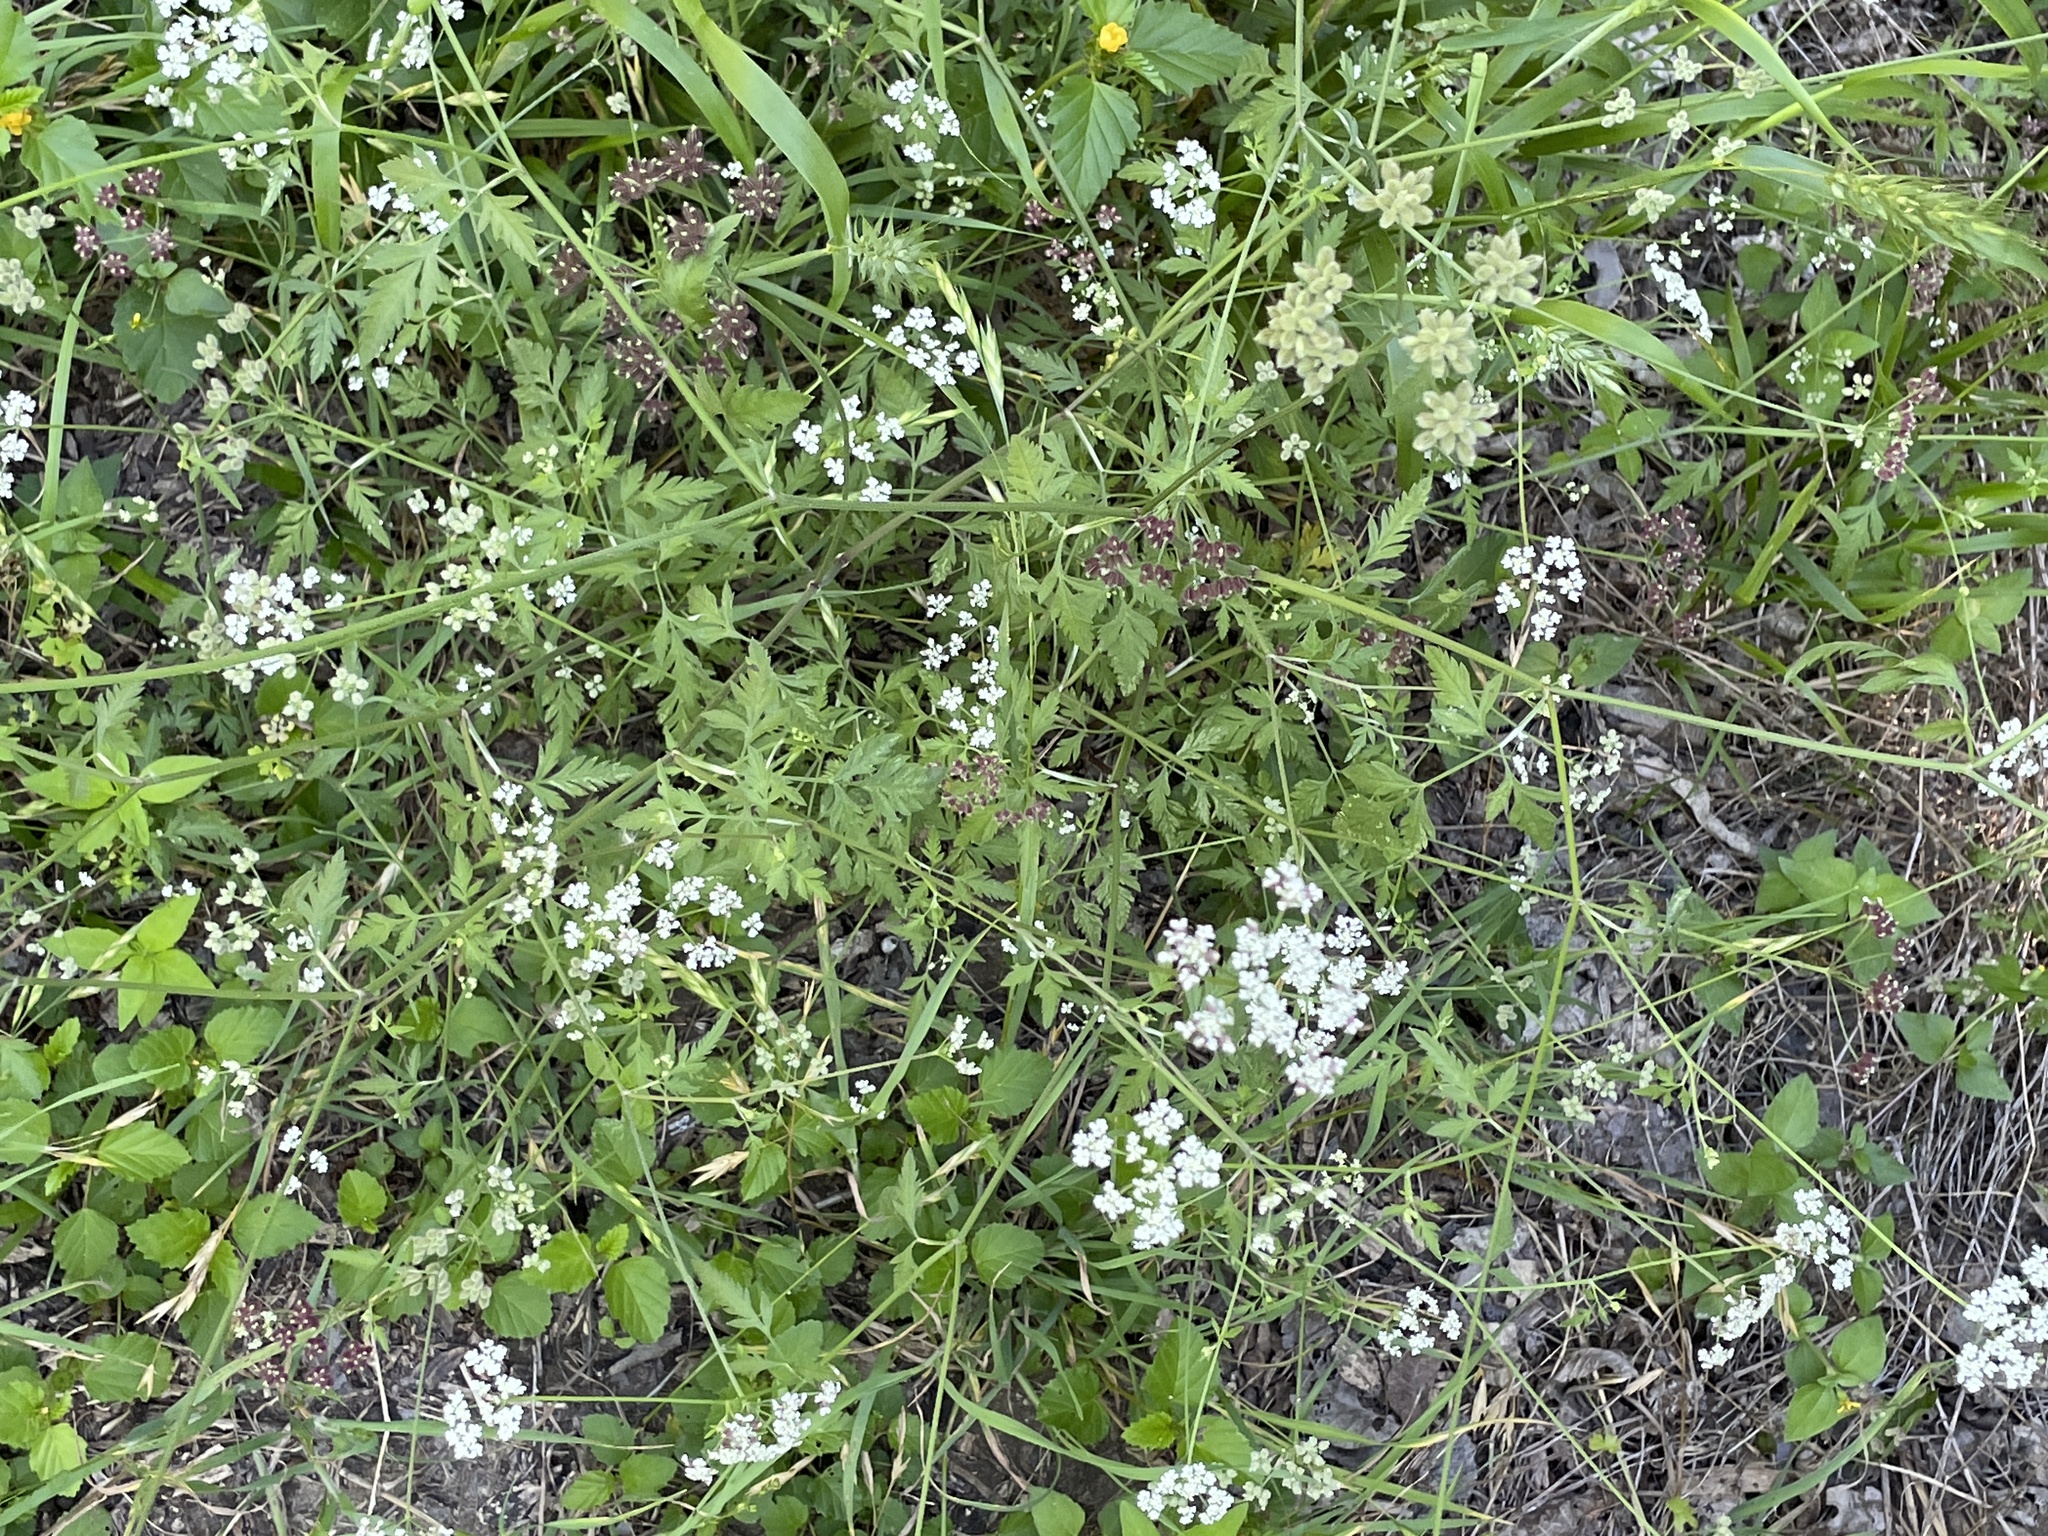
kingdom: Plantae
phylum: Tracheophyta
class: Magnoliopsida
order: Apiales
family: Apiaceae
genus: Torilis
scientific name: Torilis arvensis
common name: Spreading hedge-parsley
